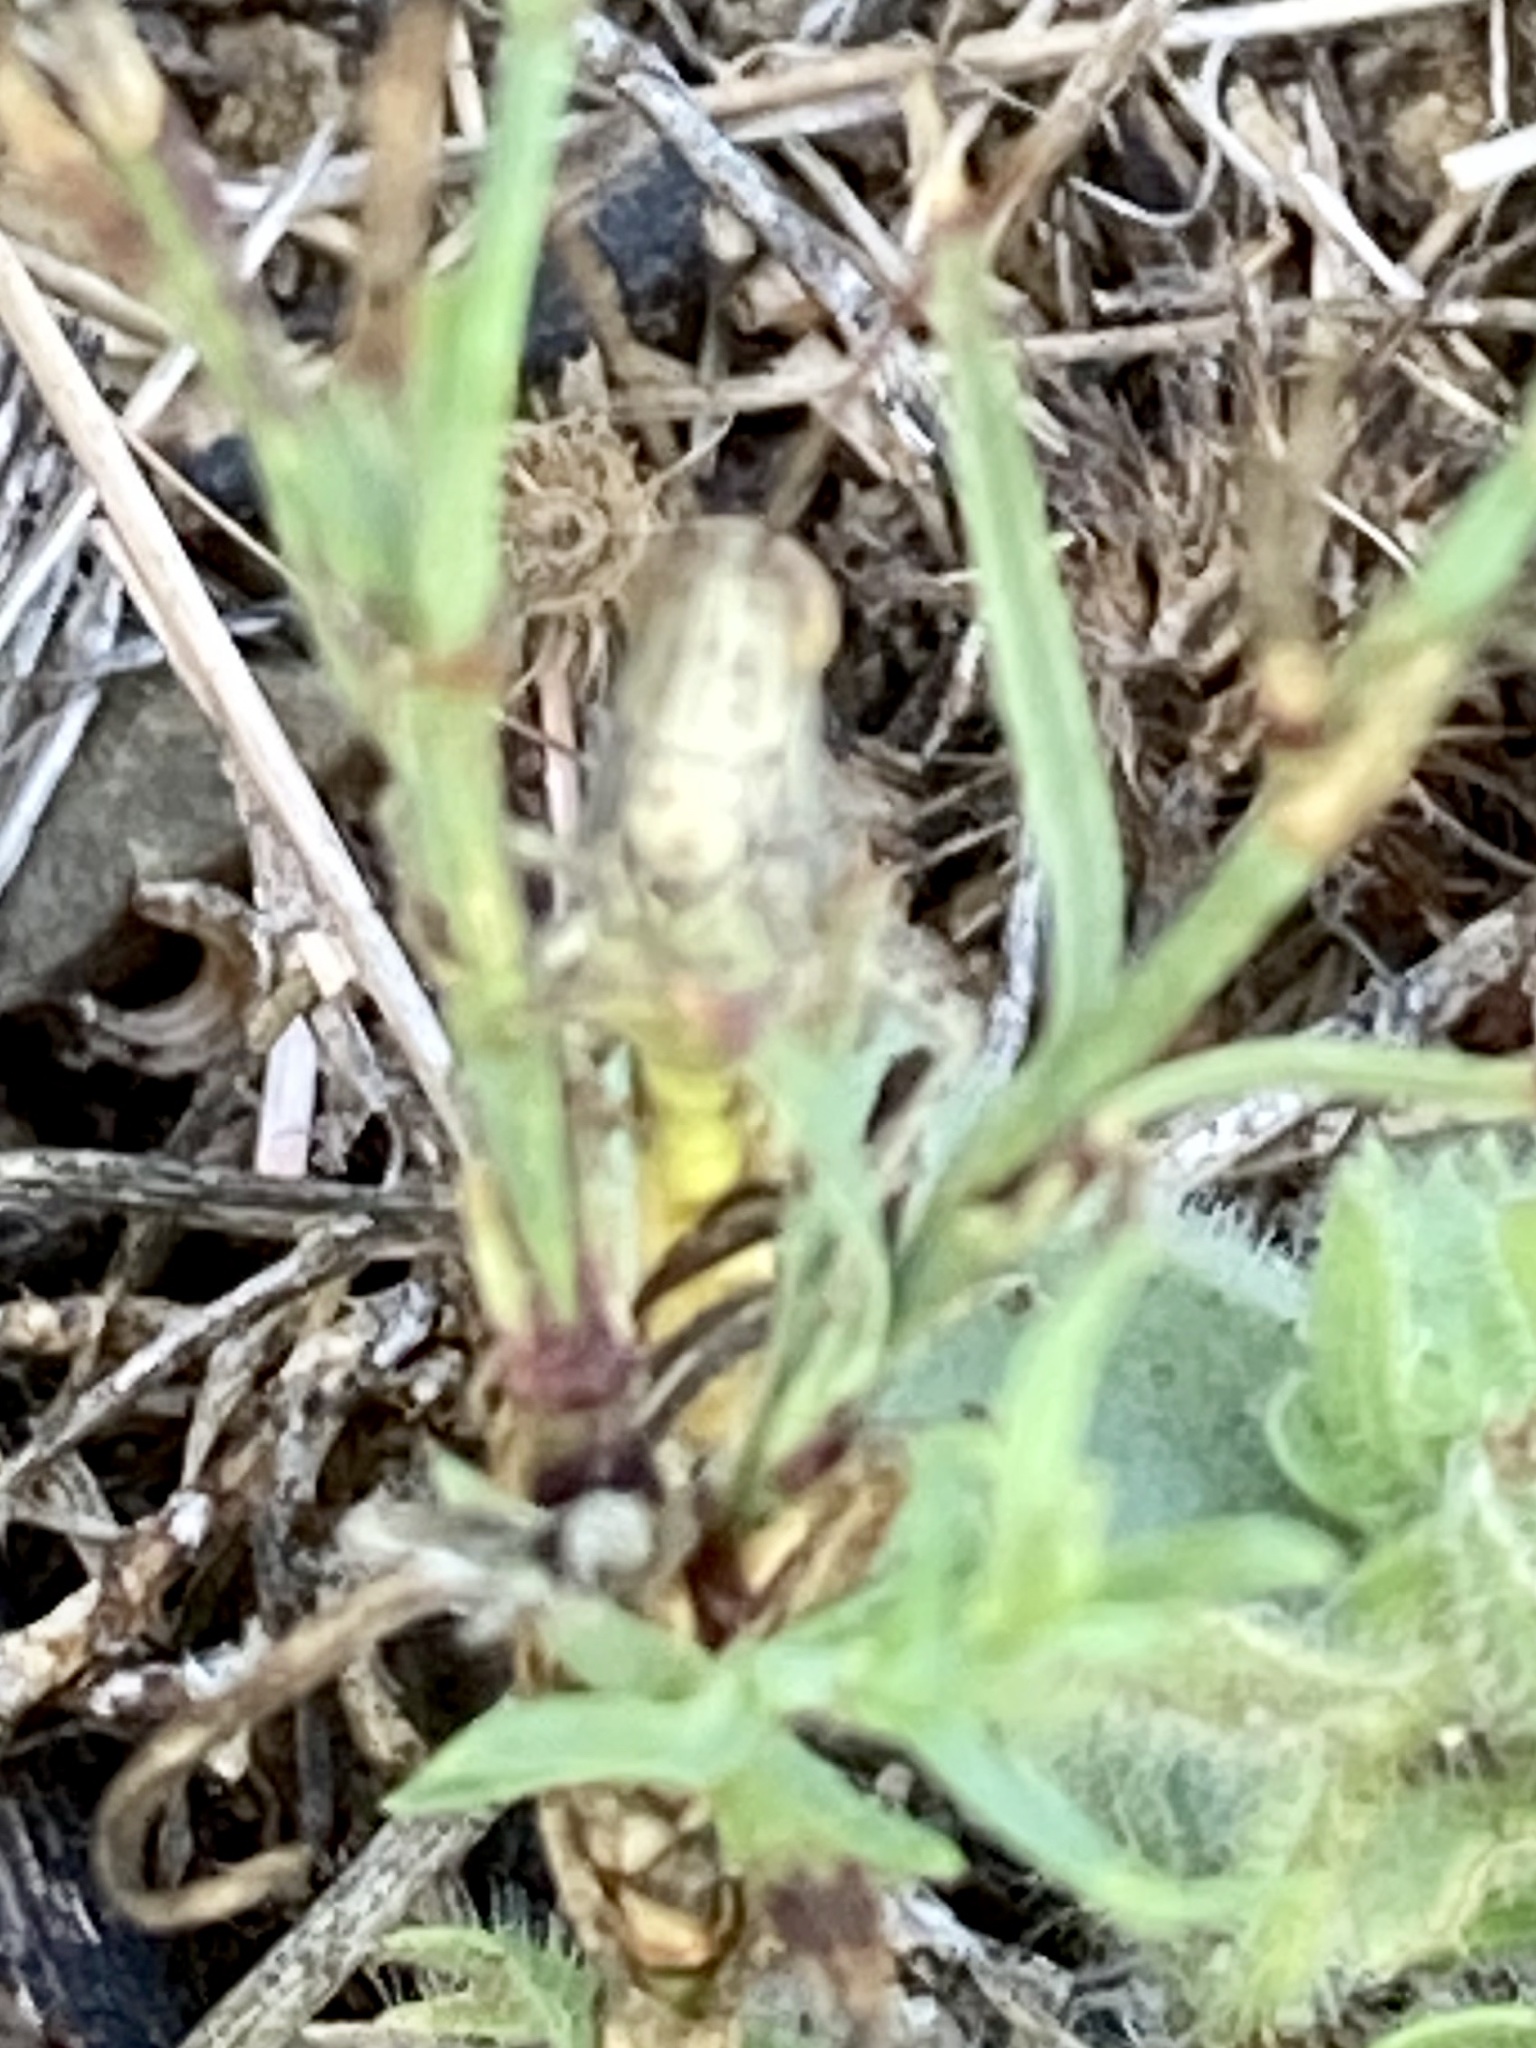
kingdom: Animalia
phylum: Arthropoda
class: Insecta
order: Orthoptera
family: Acrididae
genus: Chorthippus
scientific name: Chorthippus brunneus
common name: Field grasshopper
